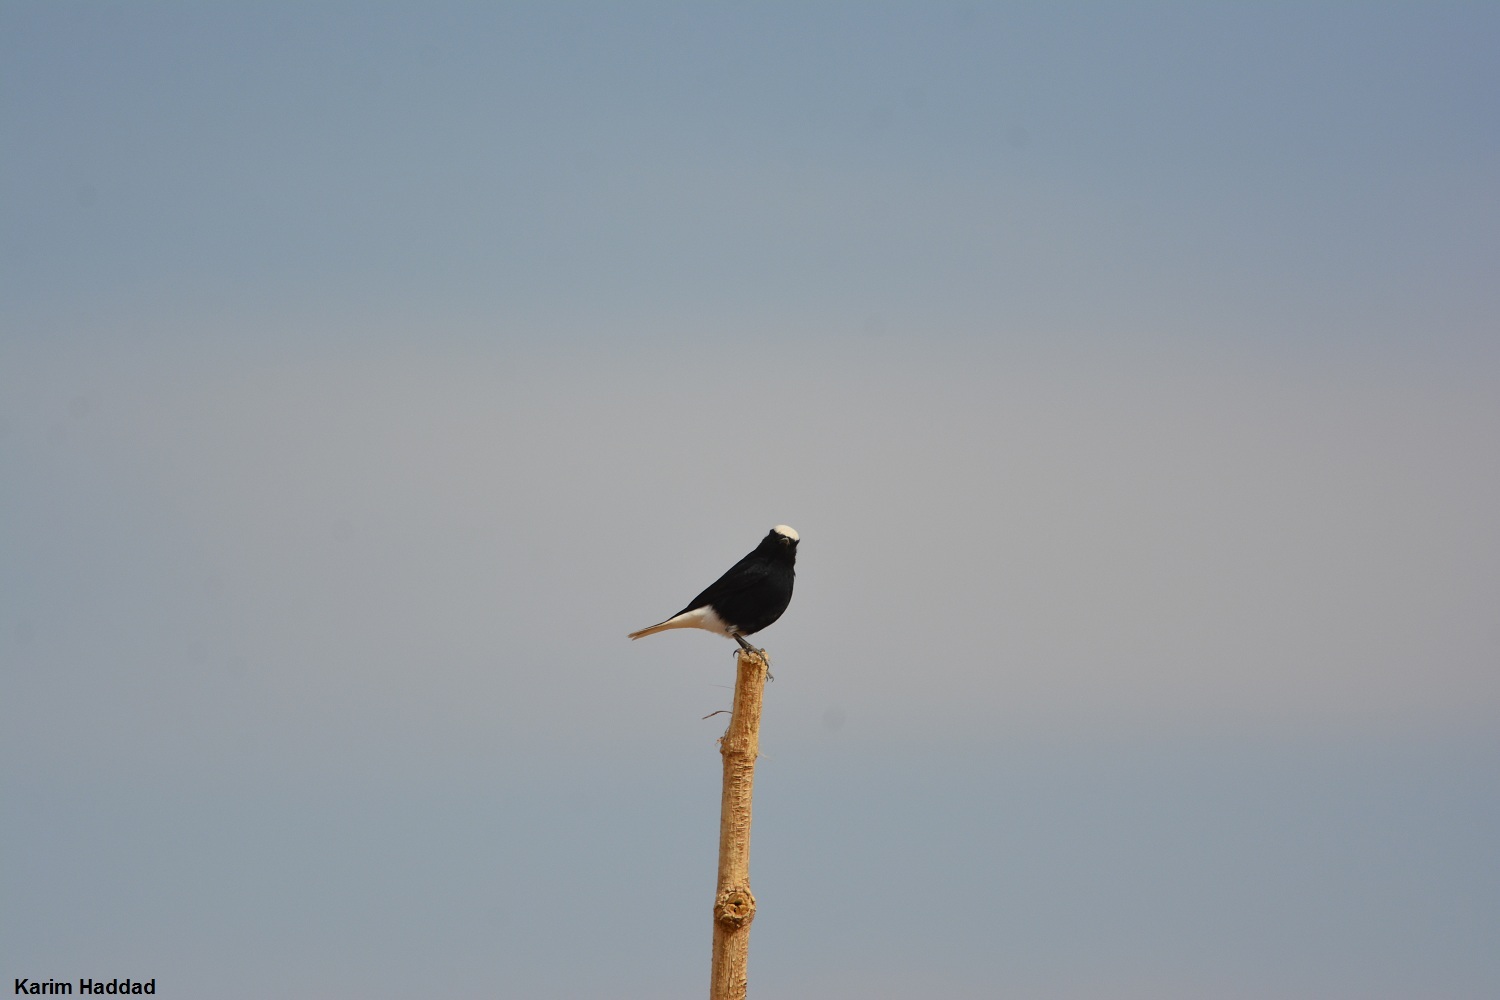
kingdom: Animalia
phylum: Chordata
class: Aves
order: Passeriformes
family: Muscicapidae
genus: Oenanthe
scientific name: Oenanthe leucopyga
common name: White-crowned wheatear
